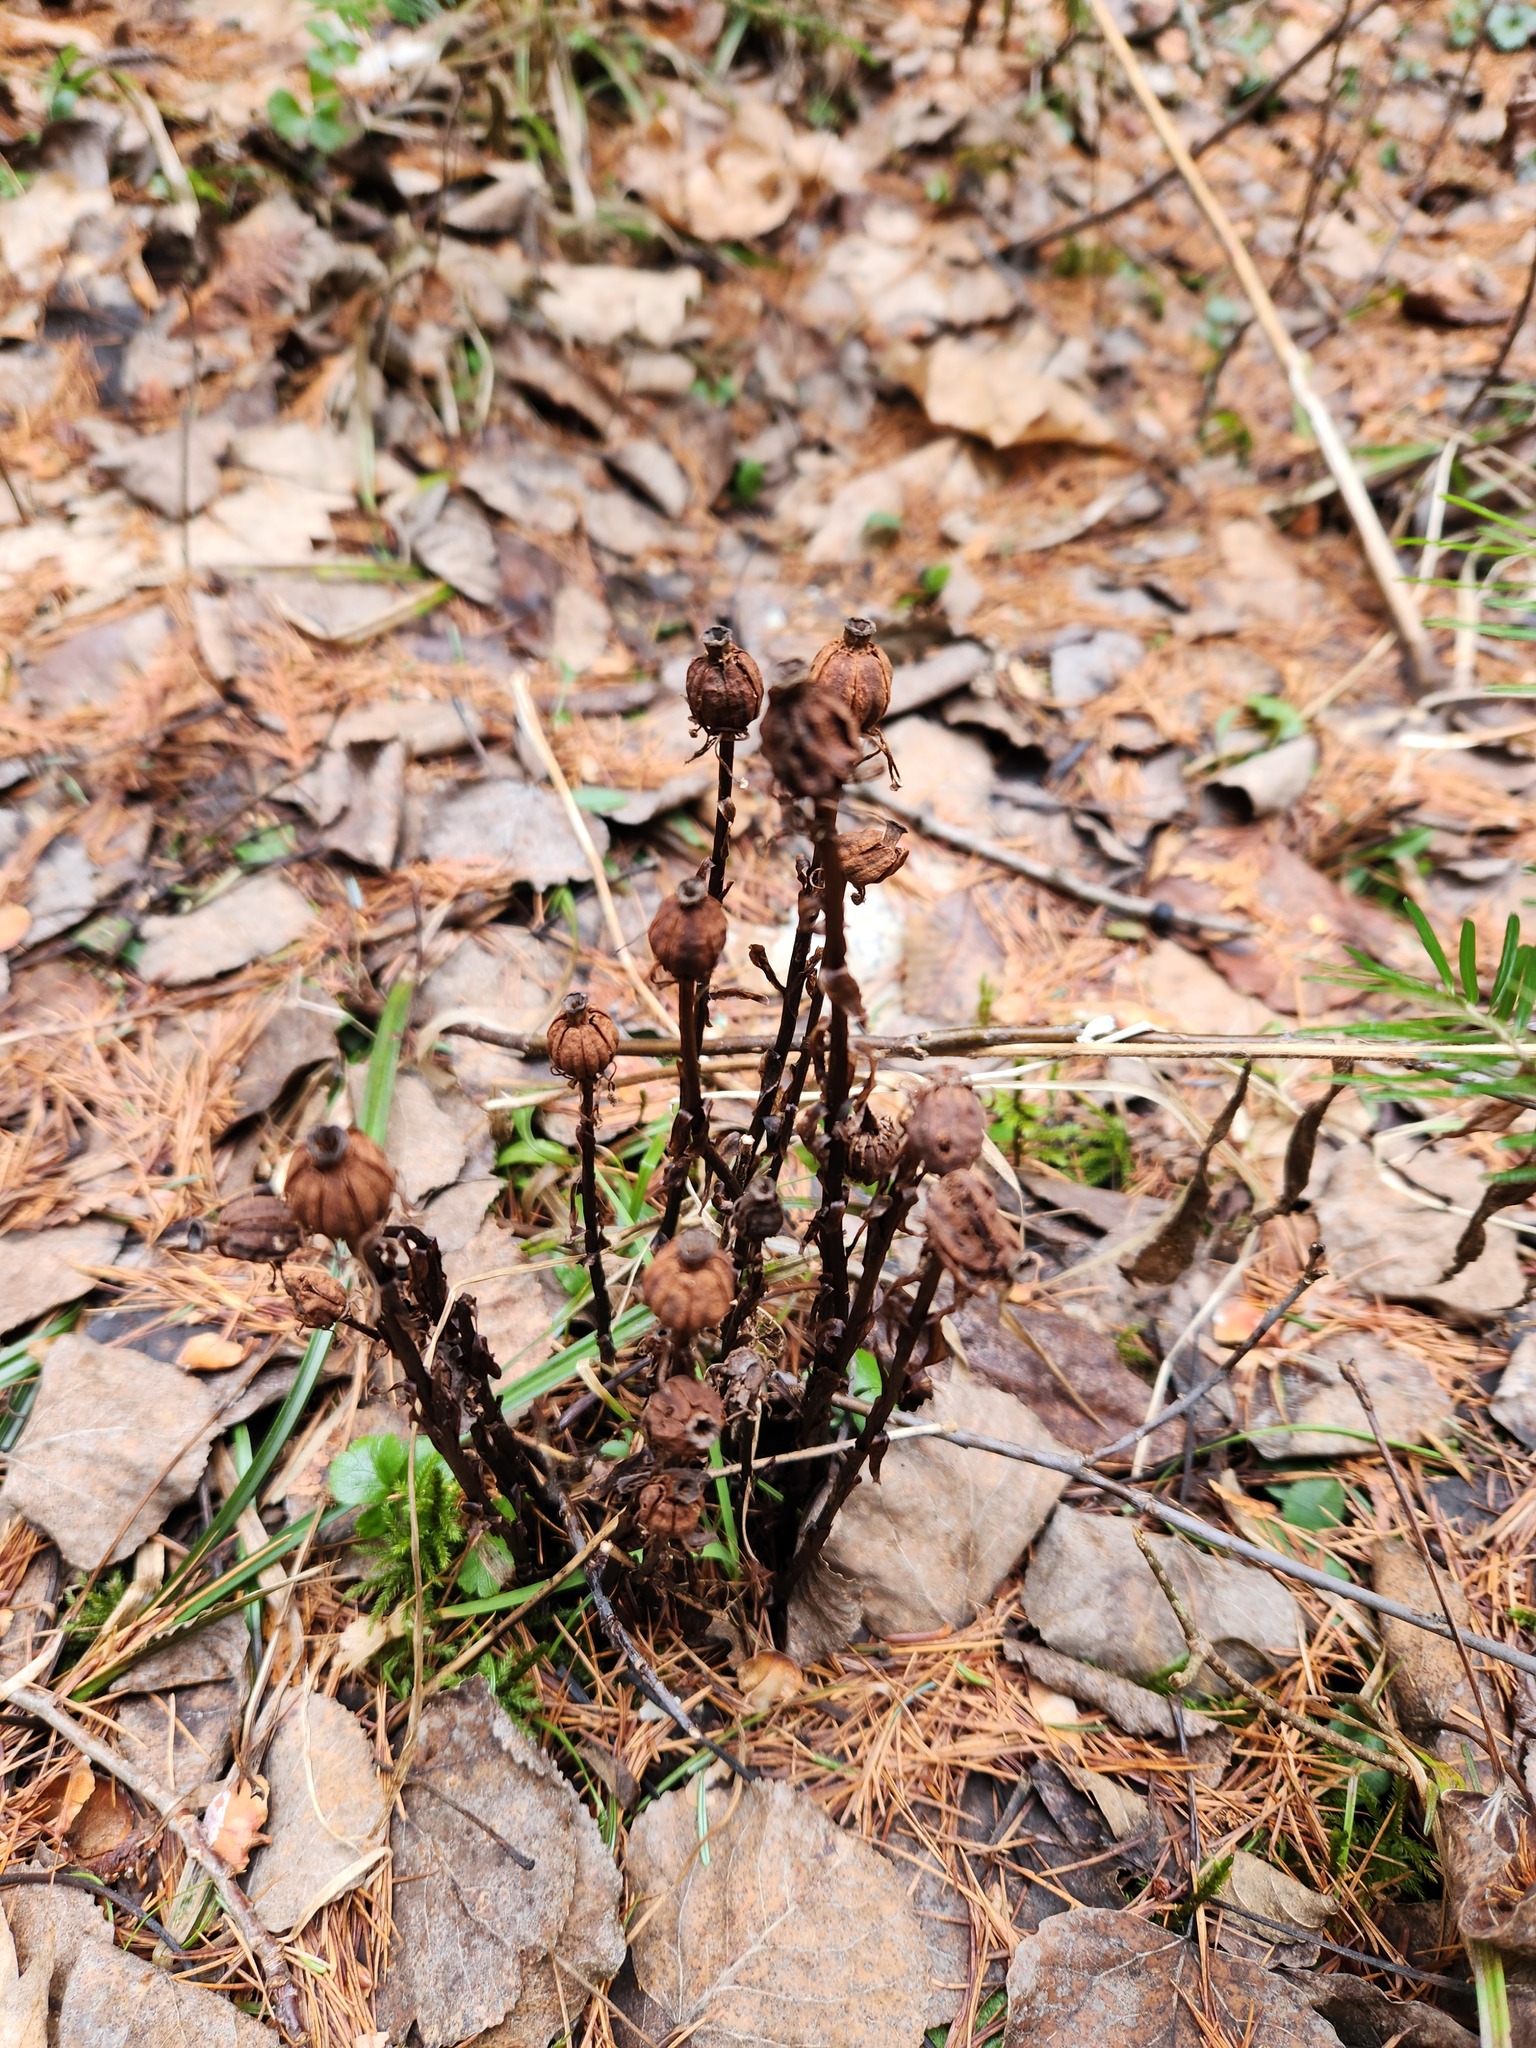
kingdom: Plantae
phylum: Tracheophyta
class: Magnoliopsida
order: Ericales
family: Ericaceae
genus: Monotropa
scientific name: Monotropa uniflora
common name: Convulsion root
